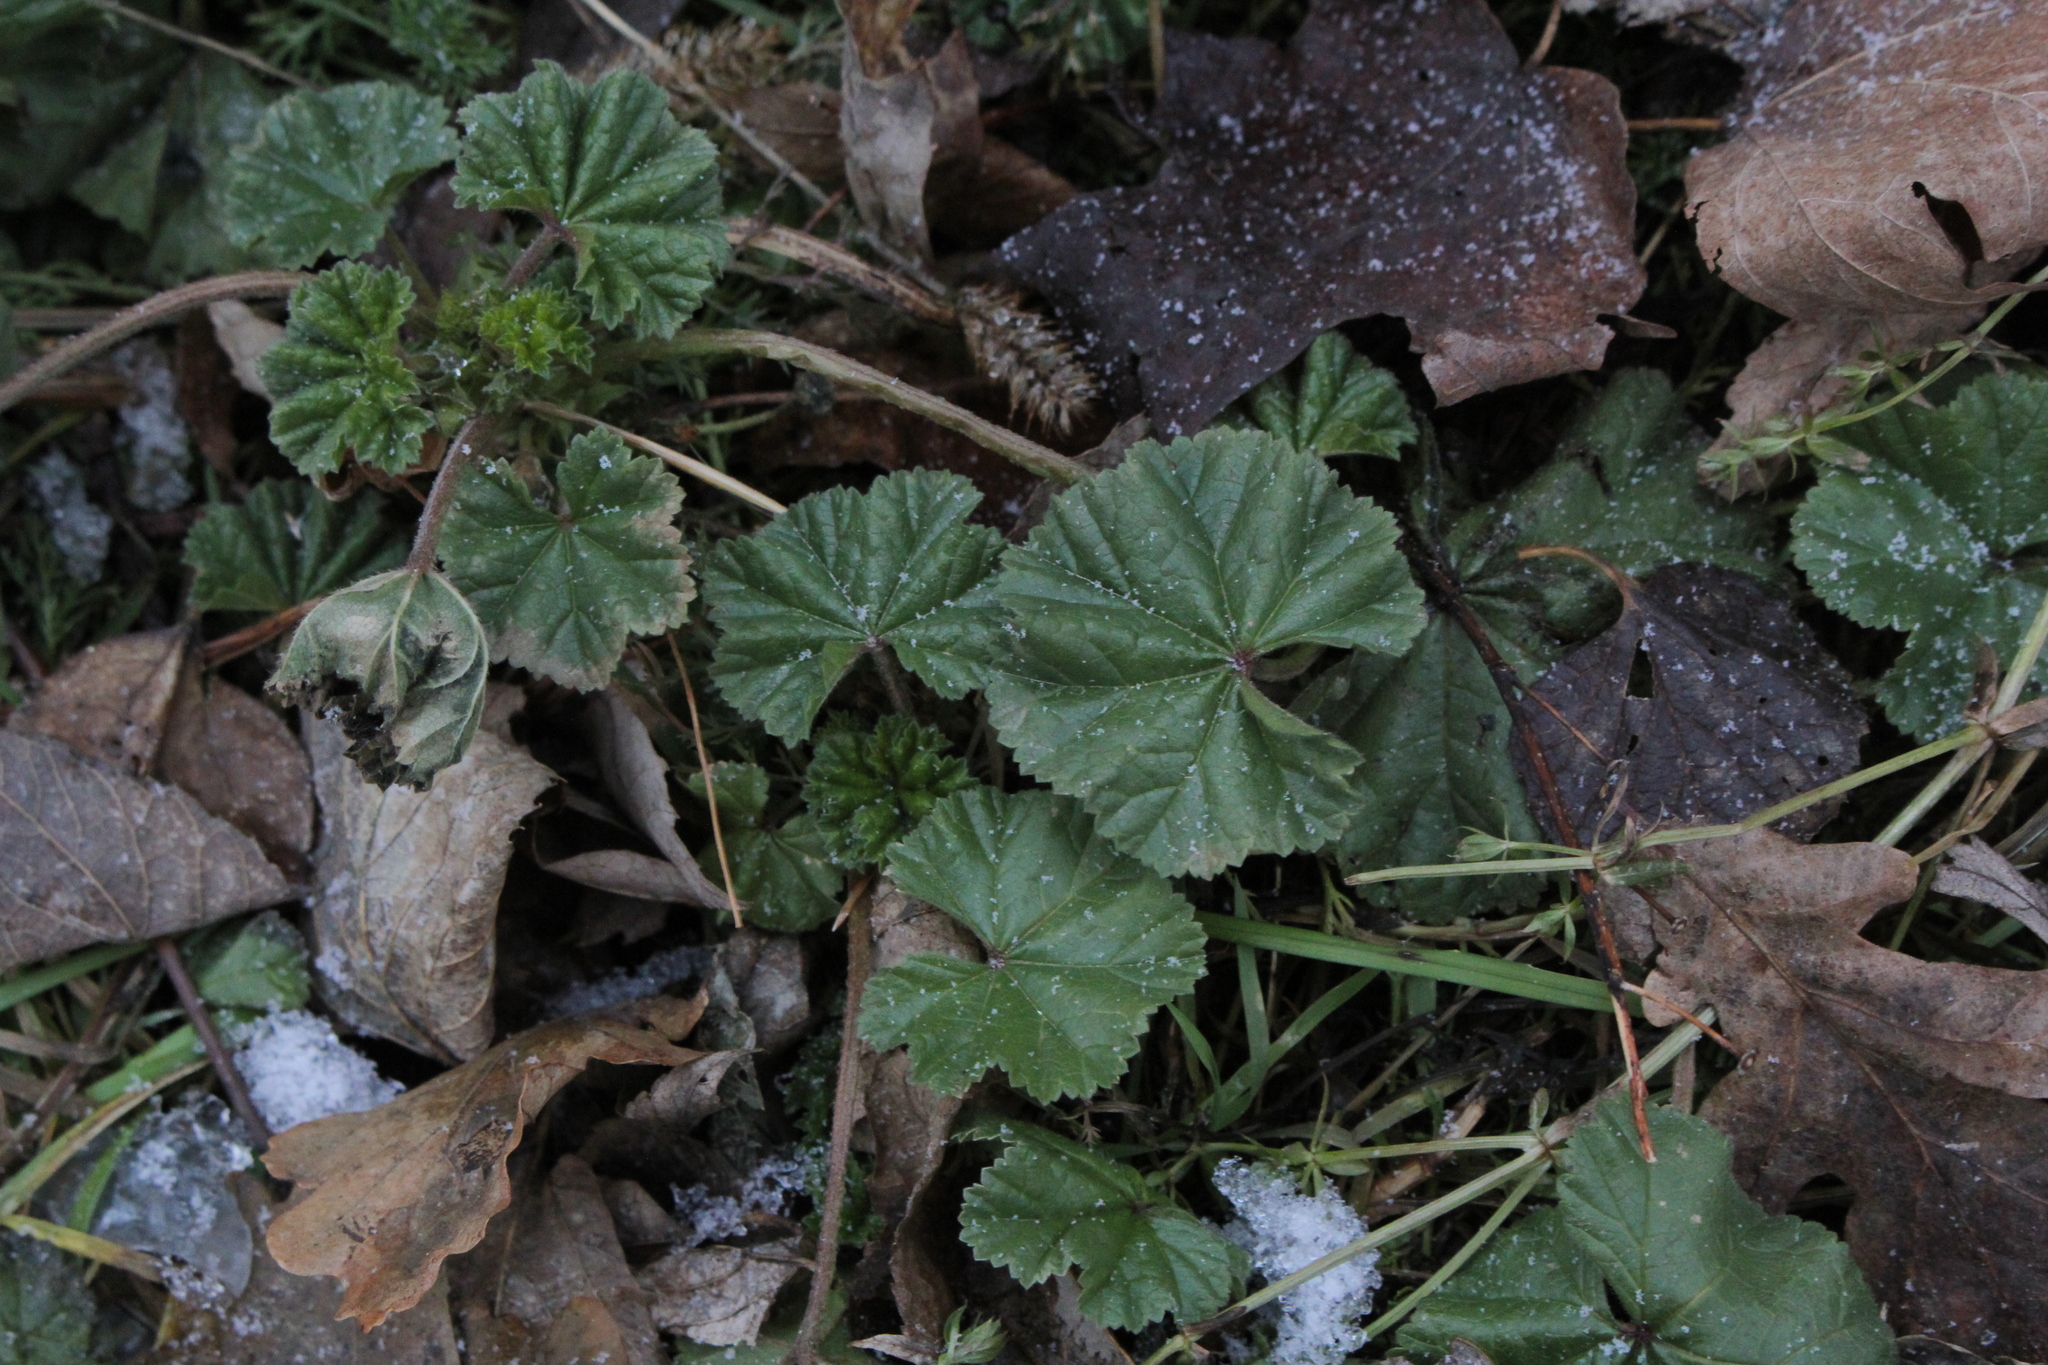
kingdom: Plantae
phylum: Tracheophyta
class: Magnoliopsida
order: Malvales
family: Malvaceae
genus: Malva
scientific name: Malva neglecta
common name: Common mallow
